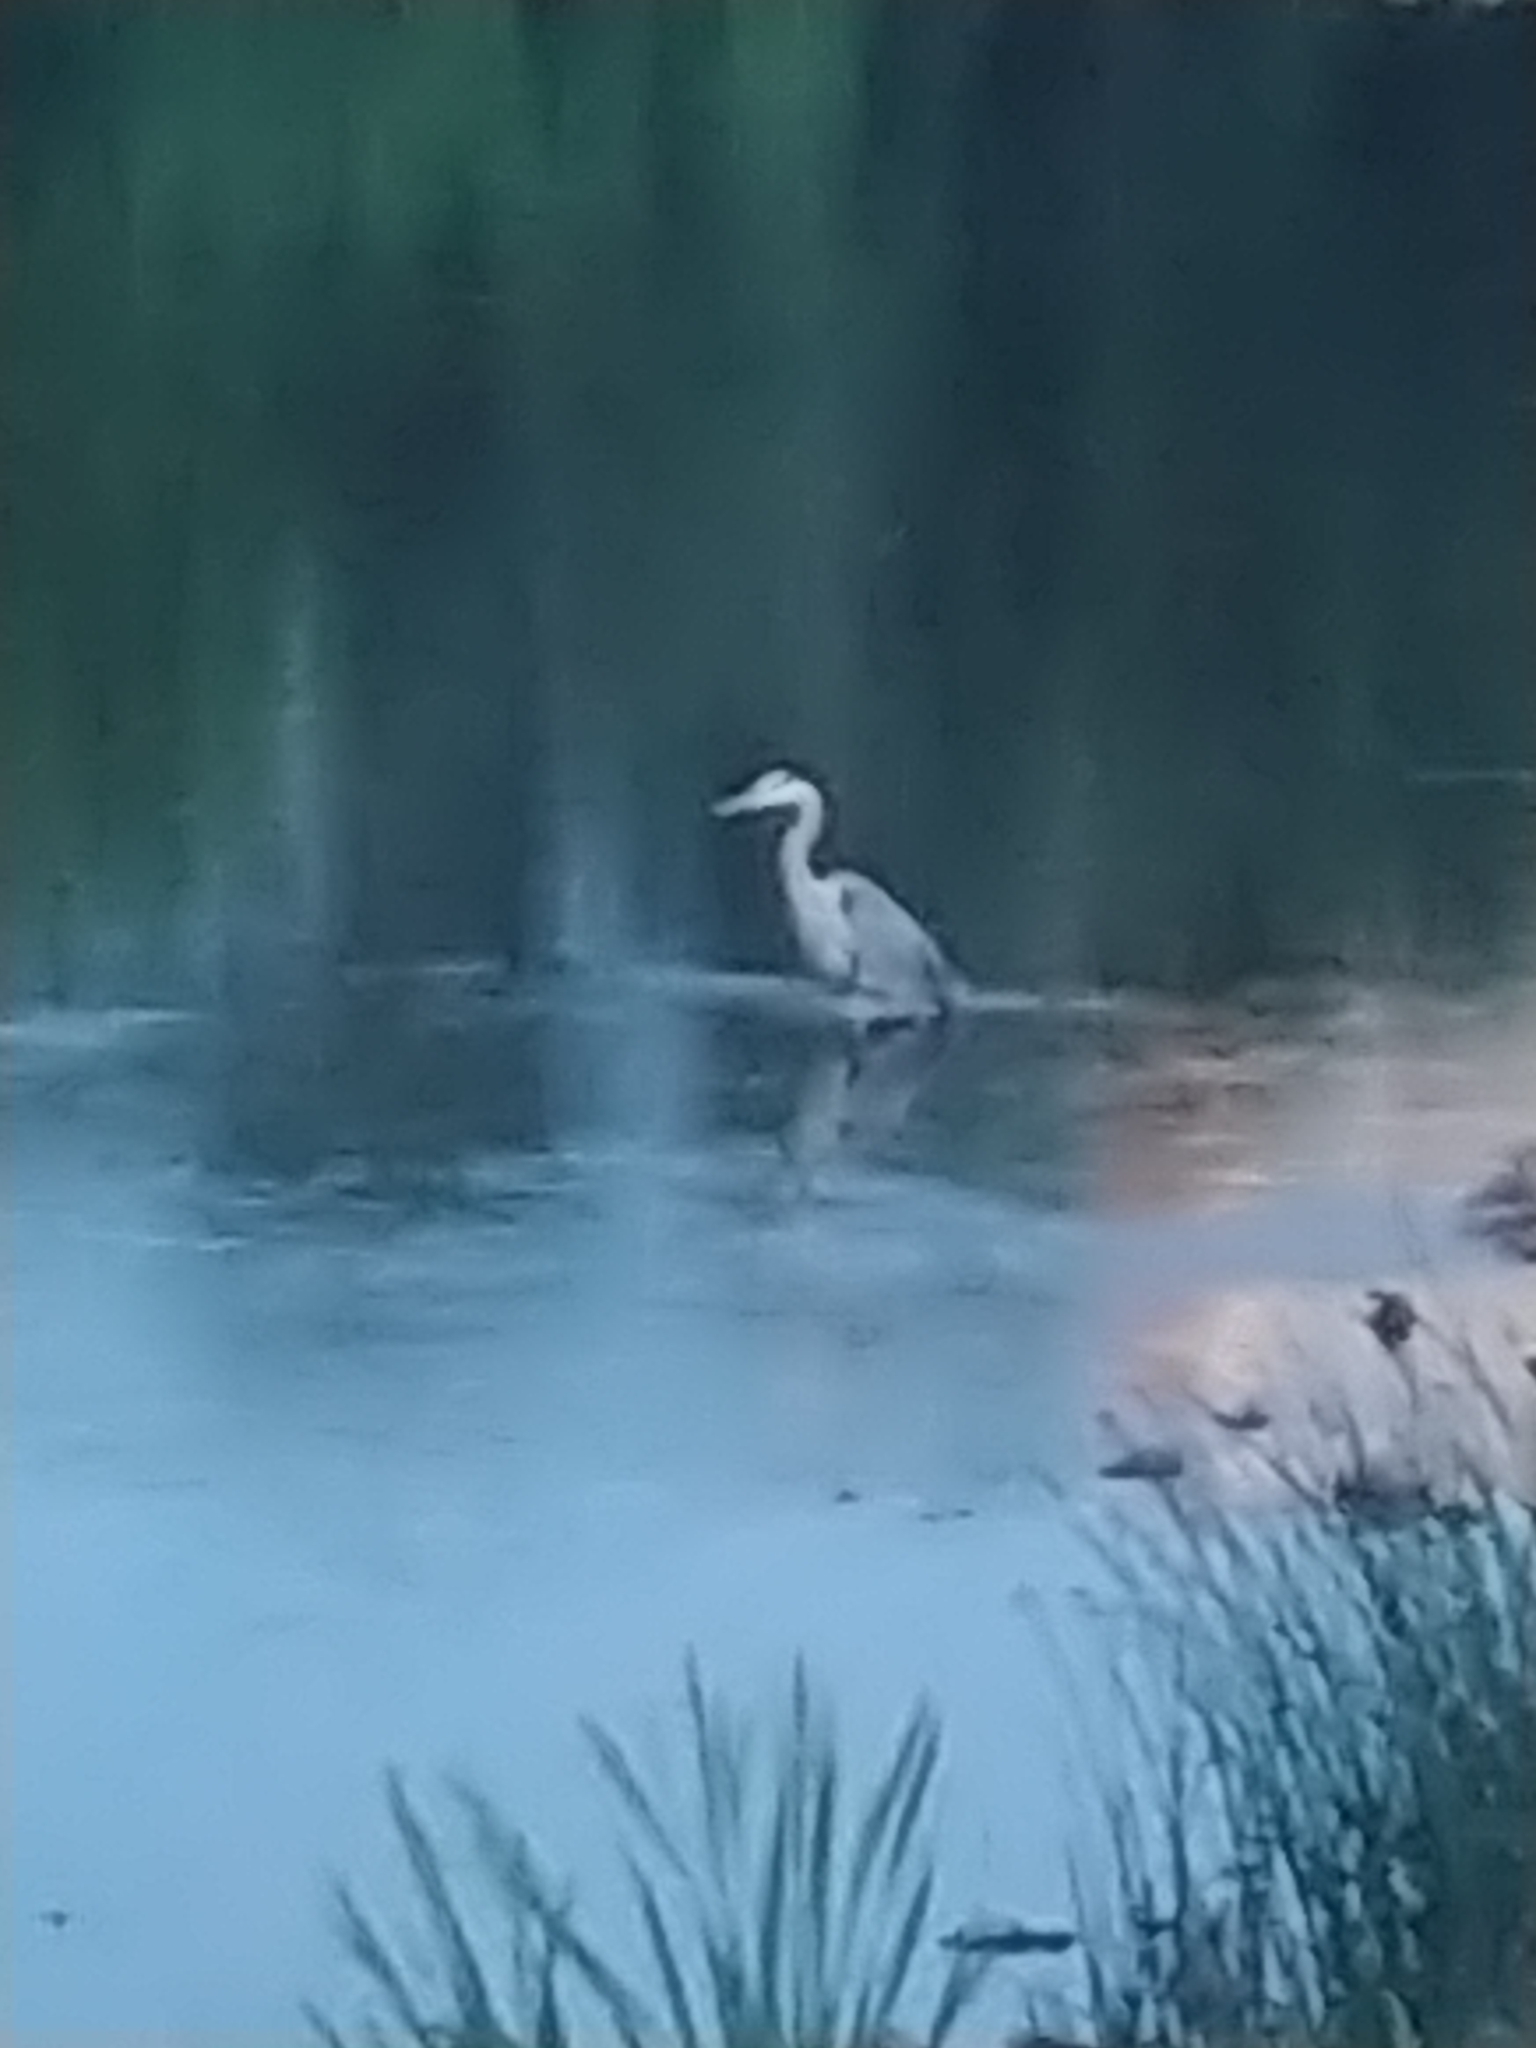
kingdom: Animalia
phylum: Chordata
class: Aves
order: Pelecaniformes
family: Ardeidae
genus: Ardea
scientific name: Ardea herodias
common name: Great blue heron
